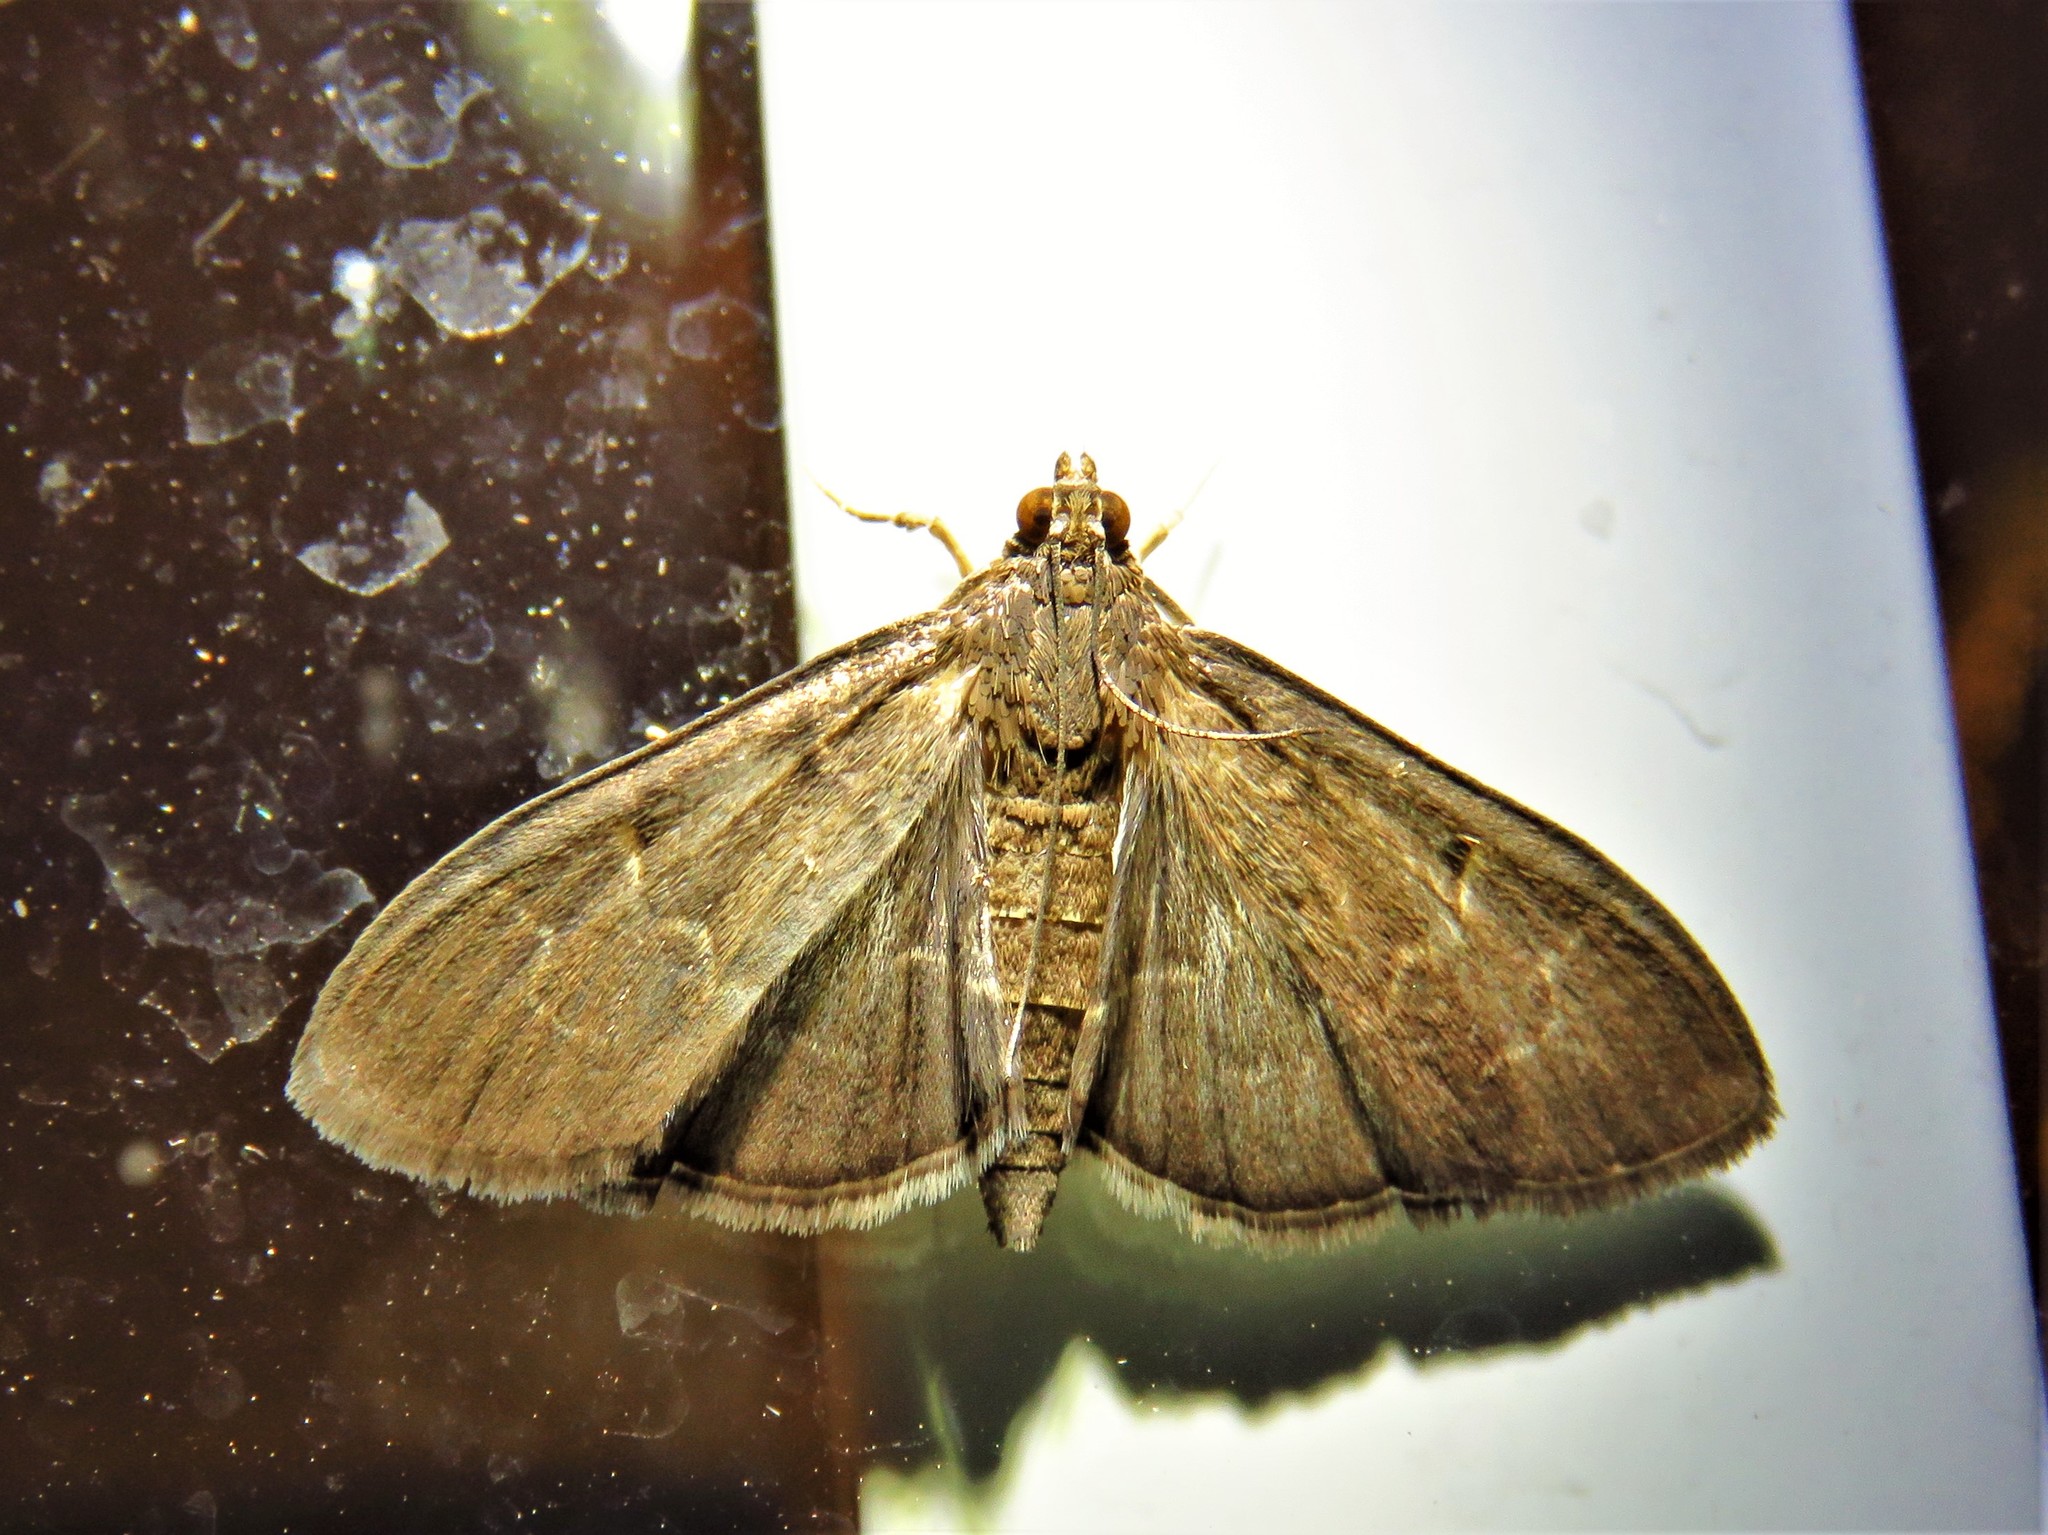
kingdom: Animalia
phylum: Arthropoda
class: Insecta
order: Lepidoptera
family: Crambidae
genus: Pilocrocis
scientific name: Pilocrocis ramentalis
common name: Scraped pilocrocis
